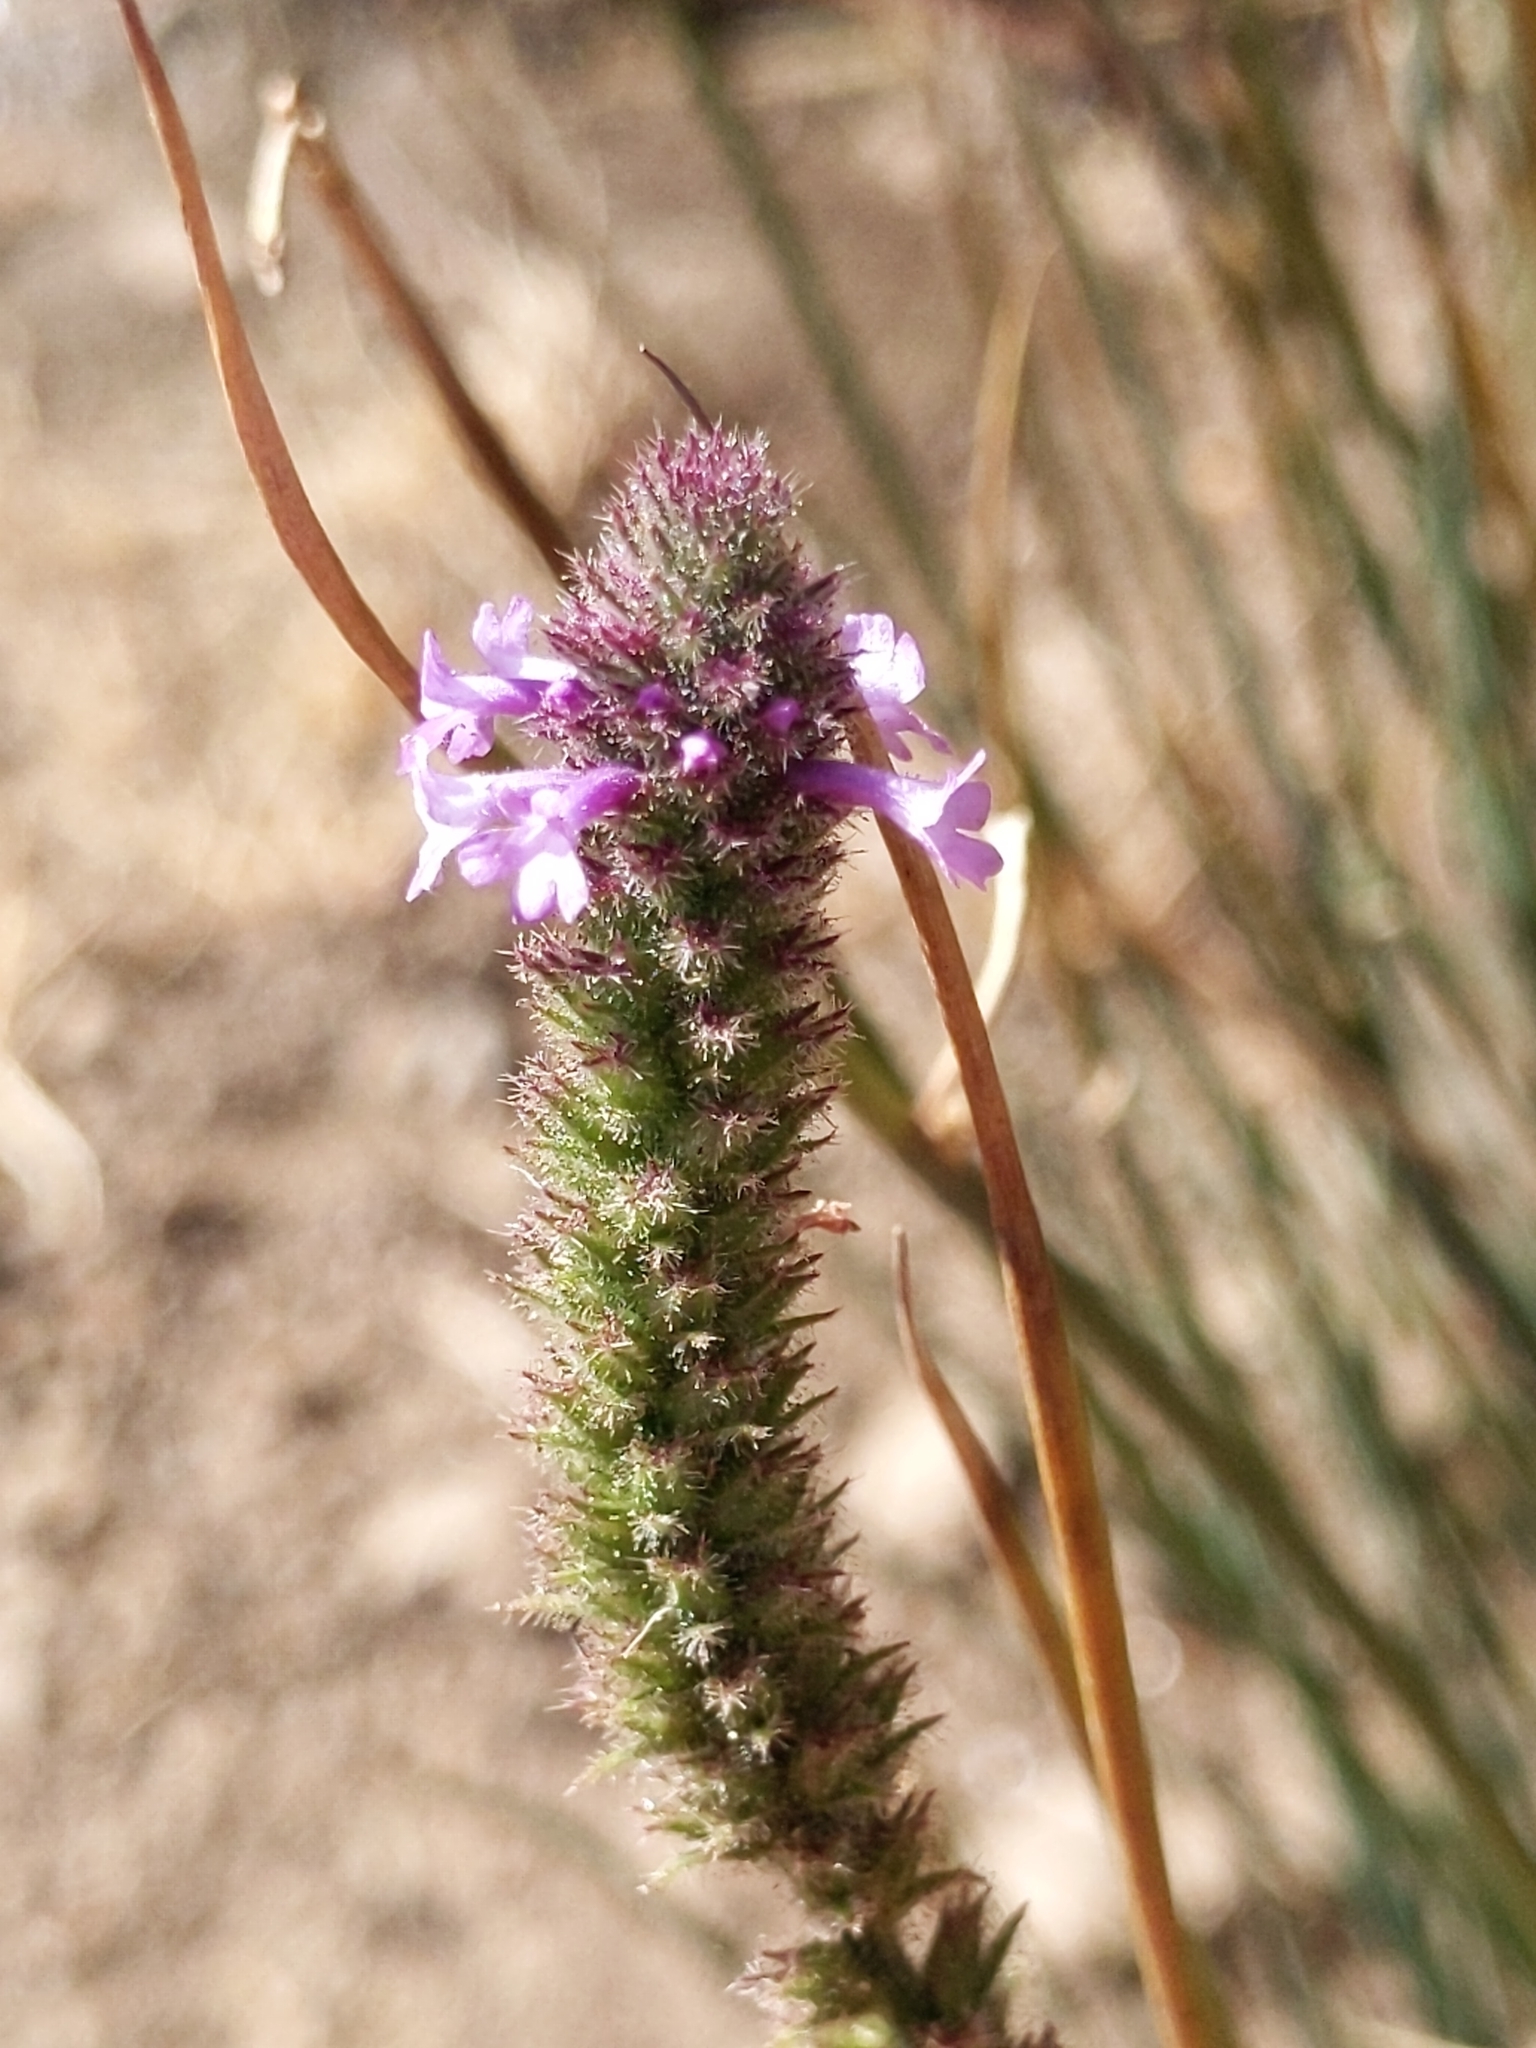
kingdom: Plantae
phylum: Tracheophyta
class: Magnoliopsida
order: Lamiales
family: Verbenaceae
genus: Verbena
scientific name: Verbena lasiostachys
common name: Vervain
